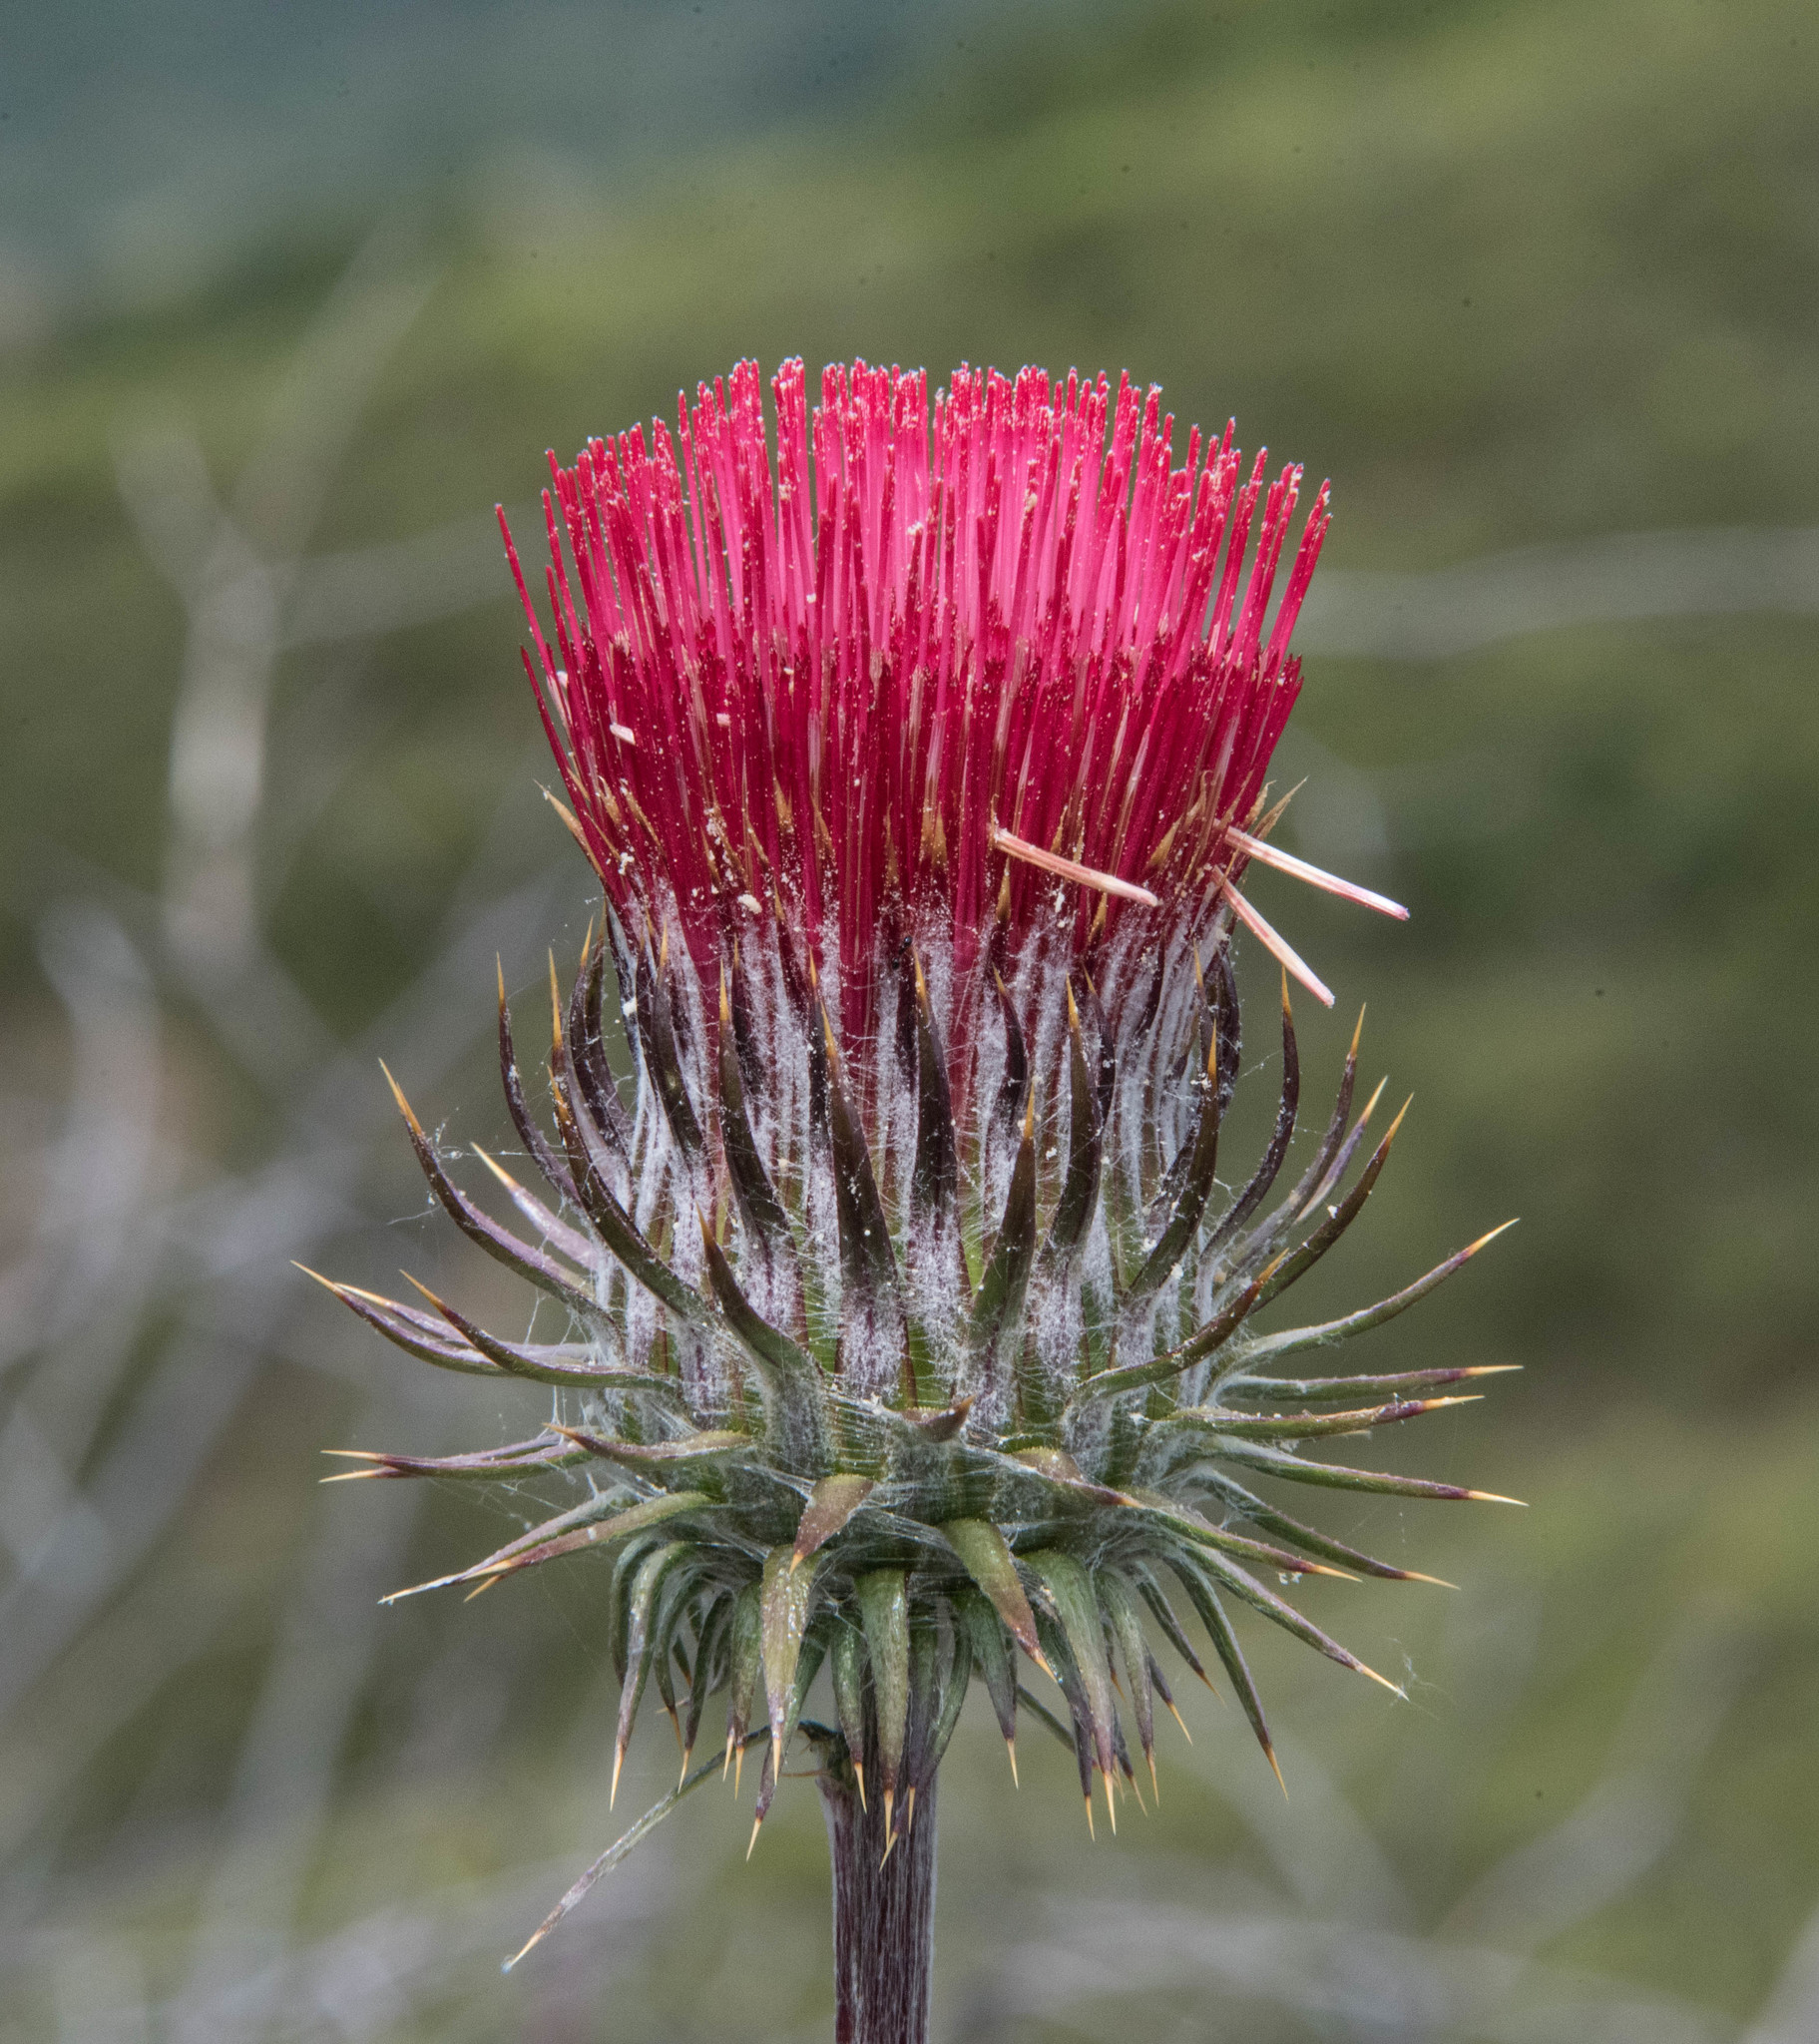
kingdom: Plantae
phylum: Tracheophyta
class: Magnoliopsida
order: Asterales
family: Asteraceae
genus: Cirsium
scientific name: Cirsium occidentale
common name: Western thistle
